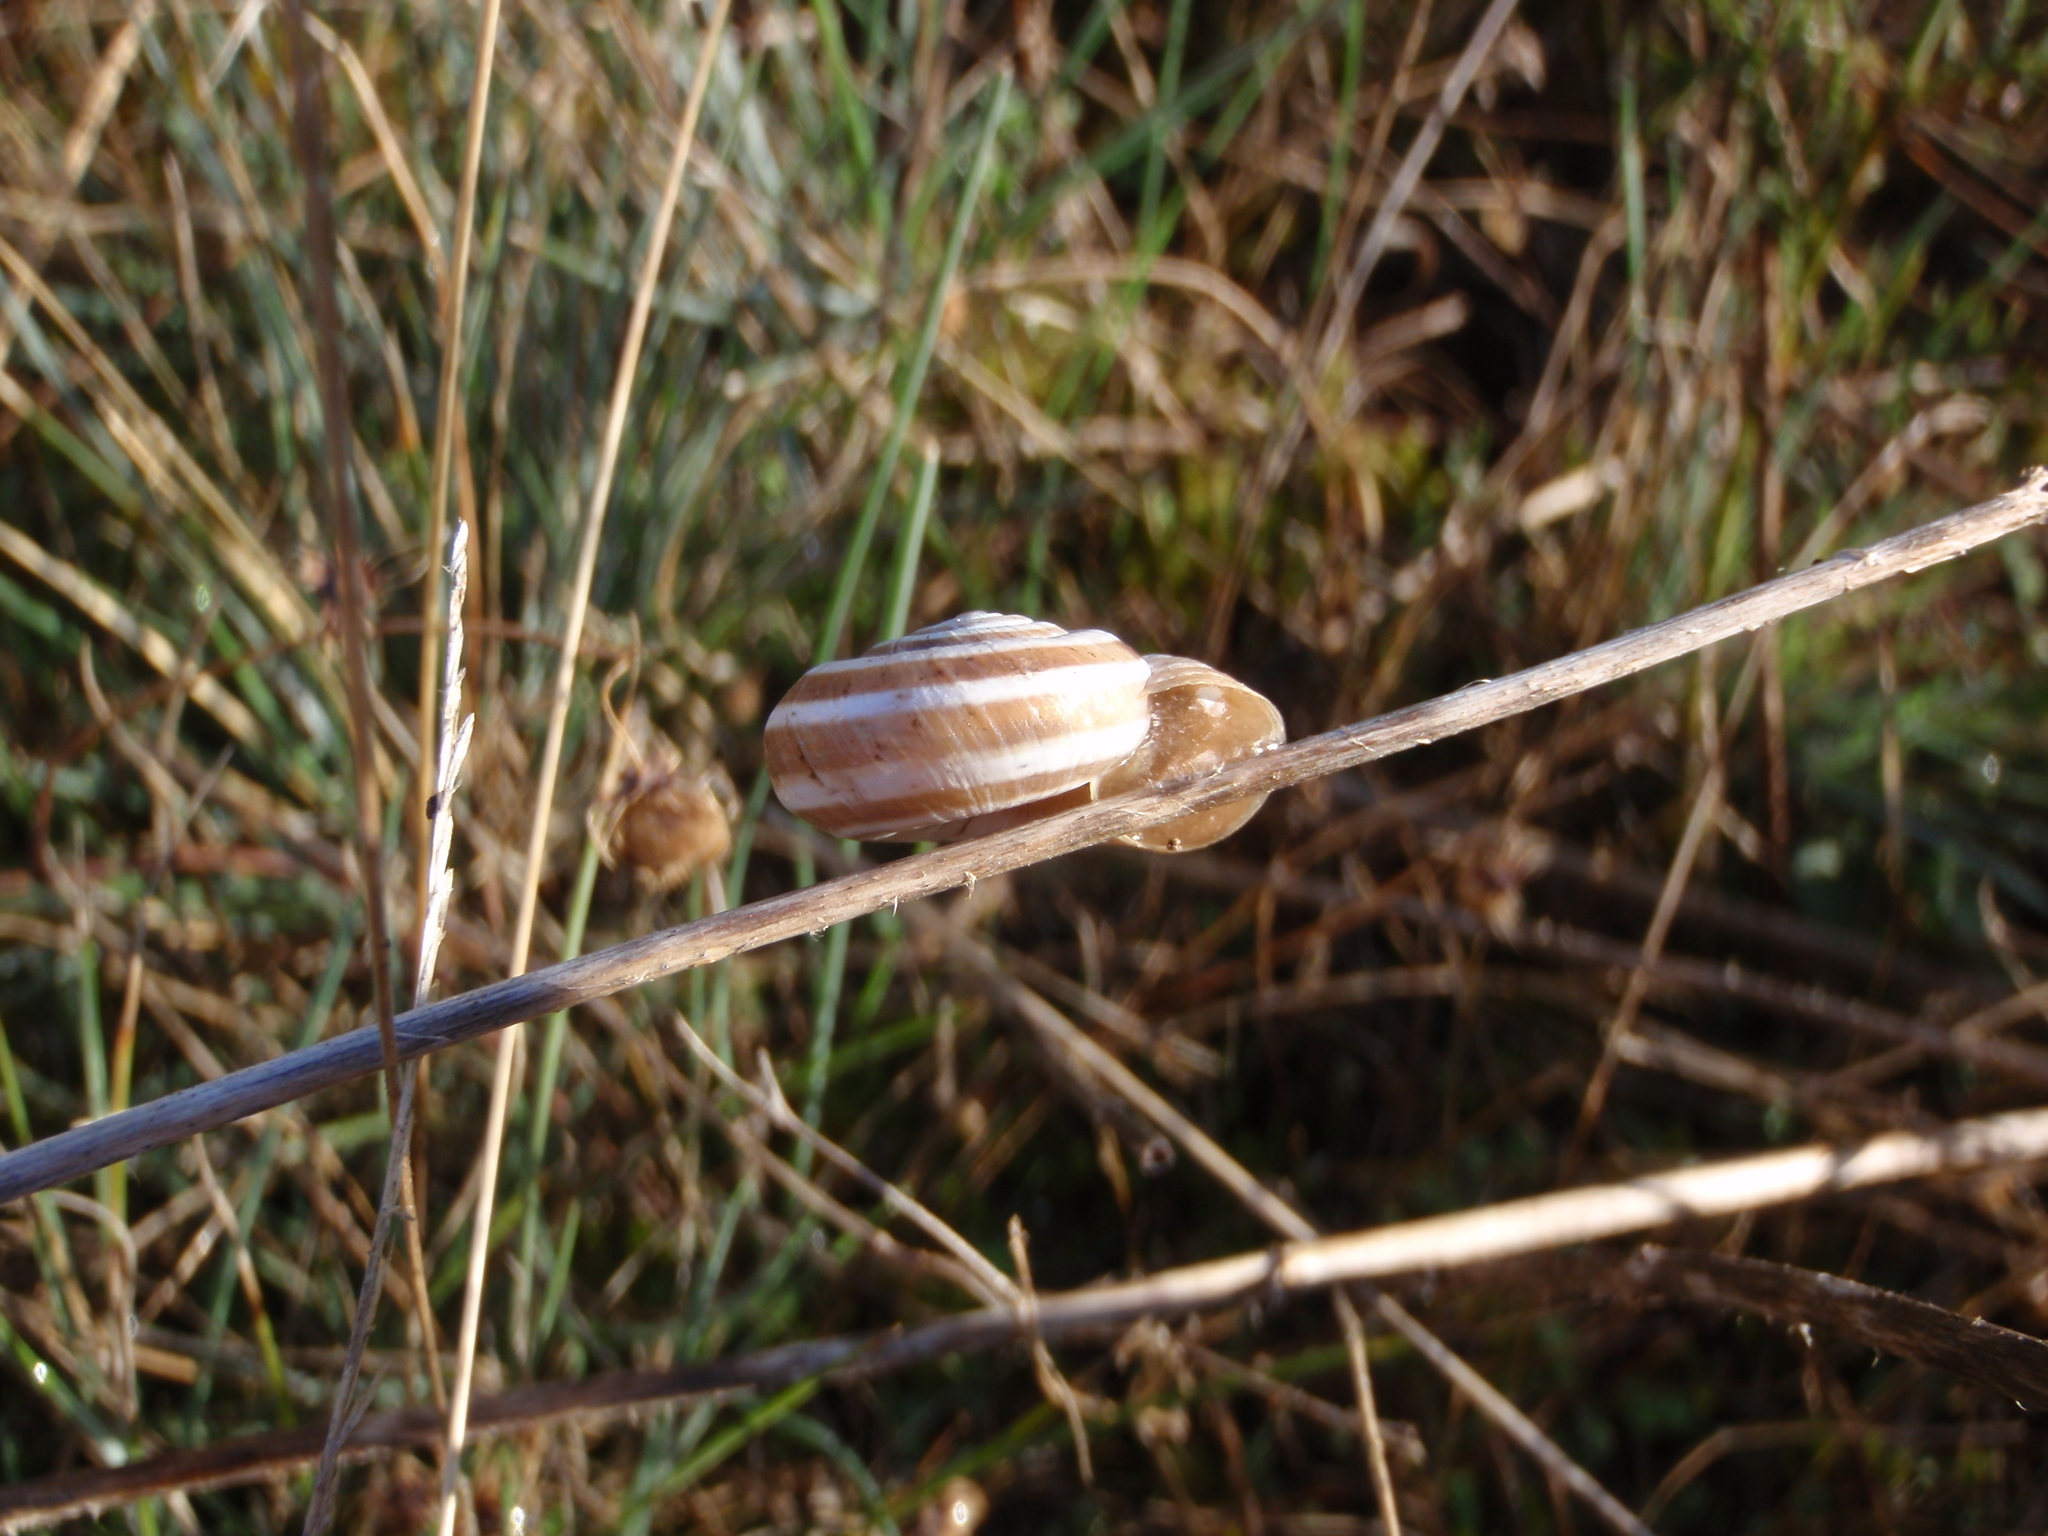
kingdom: Animalia
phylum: Mollusca
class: Gastropoda
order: Stylommatophora
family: Geomitridae
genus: Helicella
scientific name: Helicella itala
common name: Heath snail
